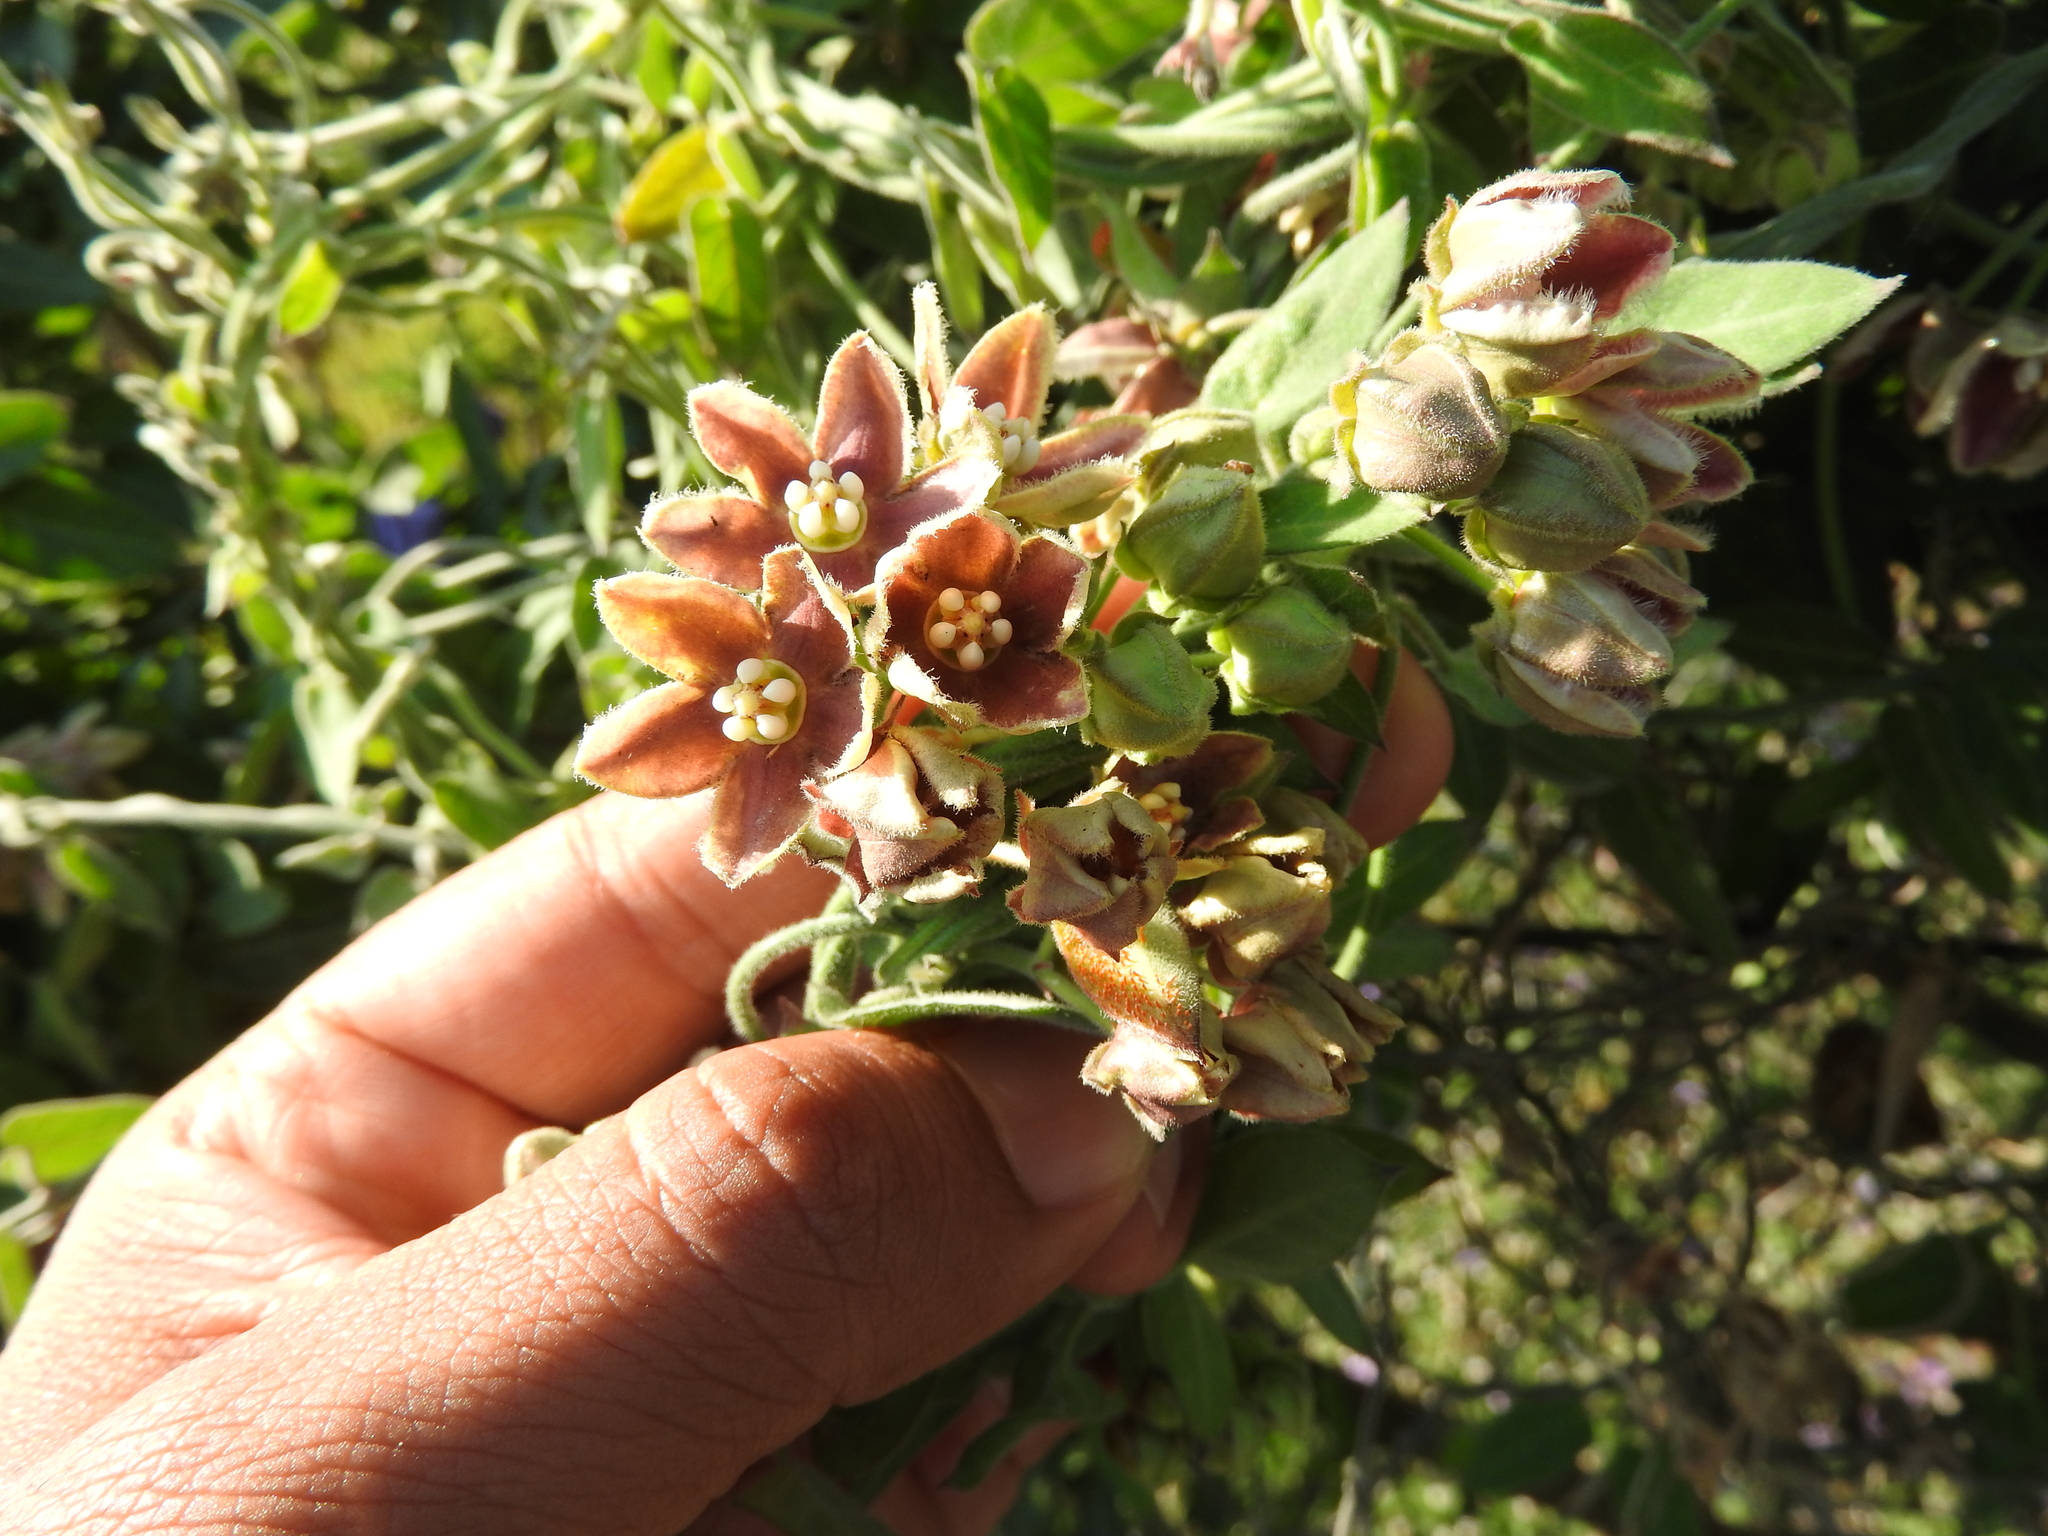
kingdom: Plantae
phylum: Tracheophyta
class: Magnoliopsida
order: Gentianales
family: Apocynaceae
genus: Funastrum
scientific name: Funastrum elegans
